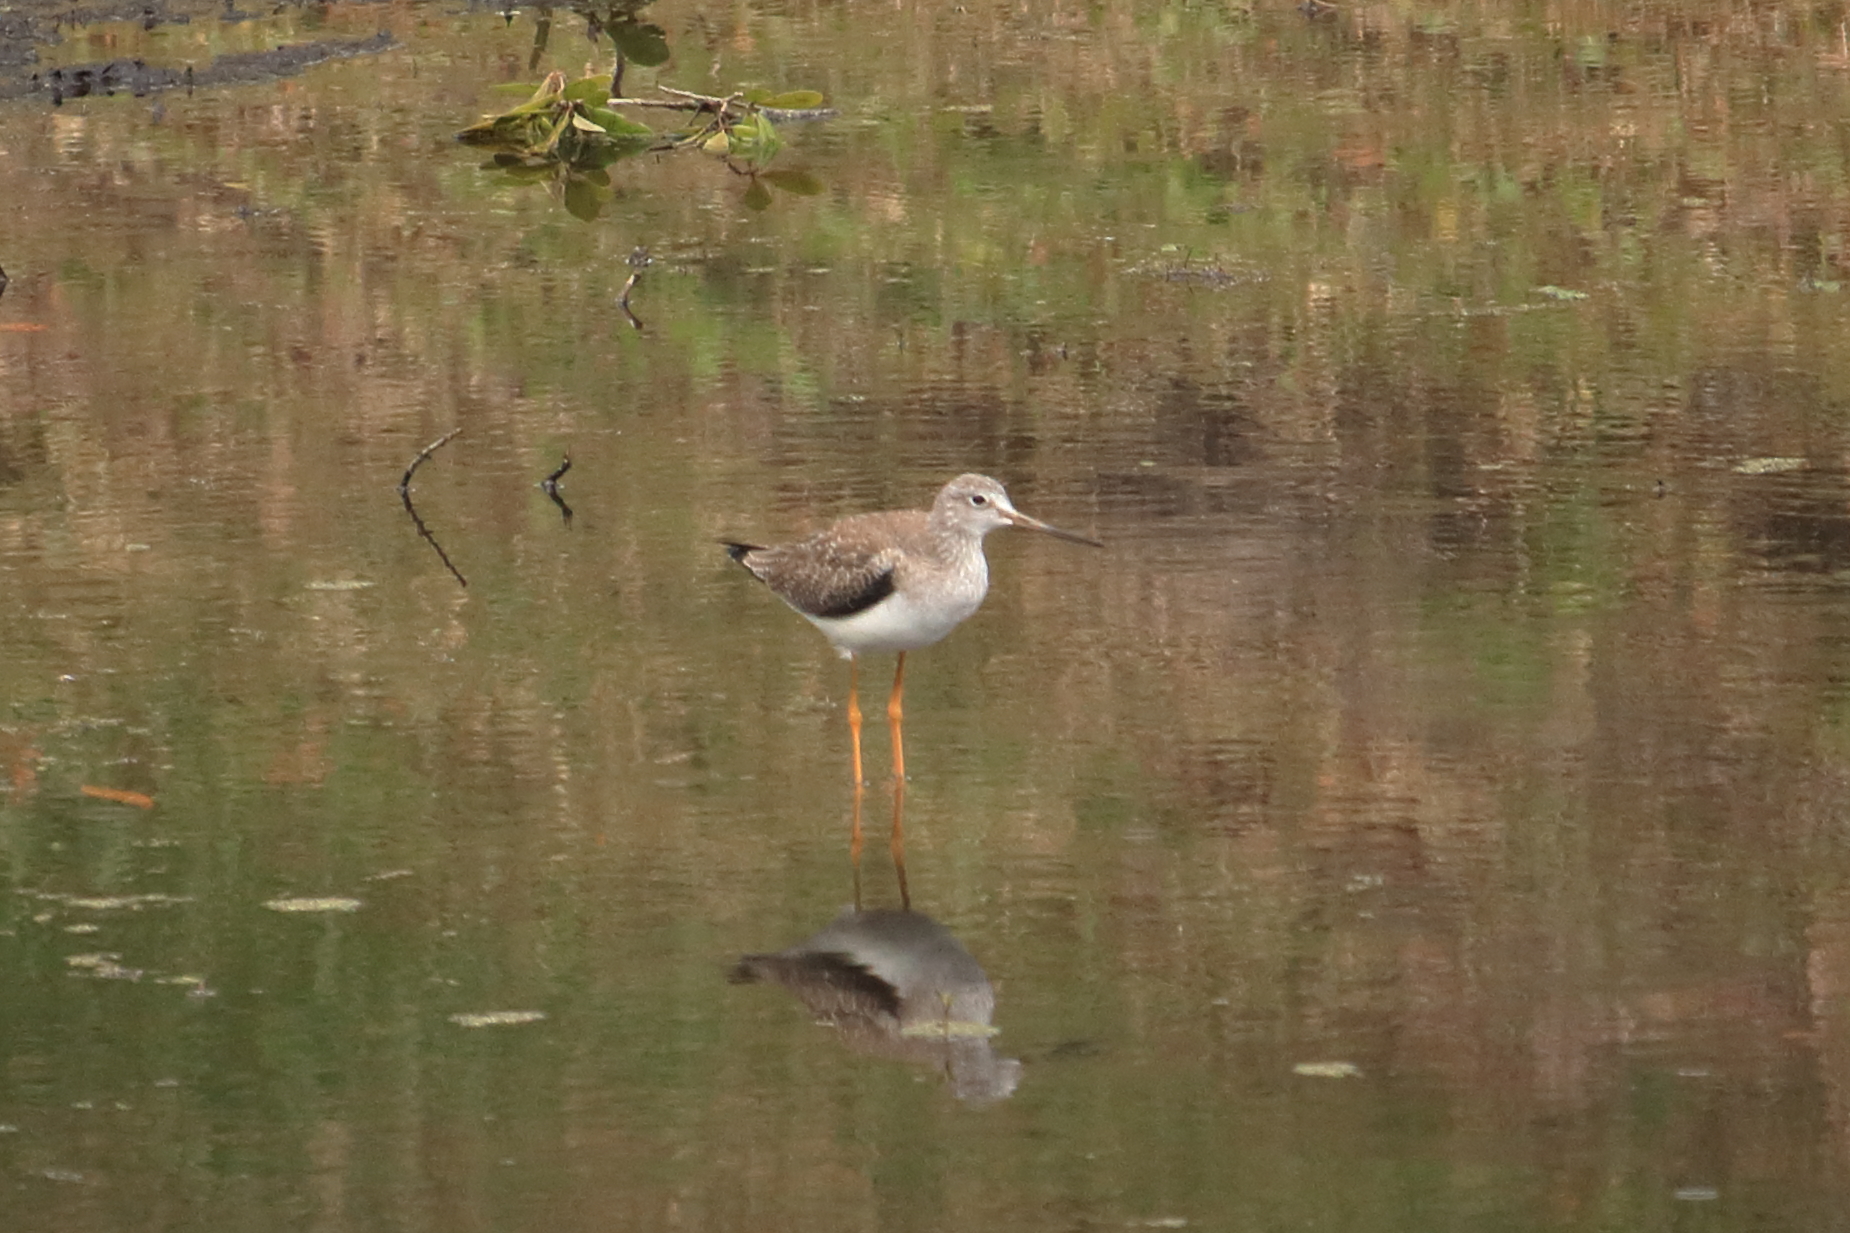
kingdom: Animalia
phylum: Chordata
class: Aves
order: Charadriiformes
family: Scolopacidae
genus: Tringa
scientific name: Tringa melanoleuca
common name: Greater yellowlegs
